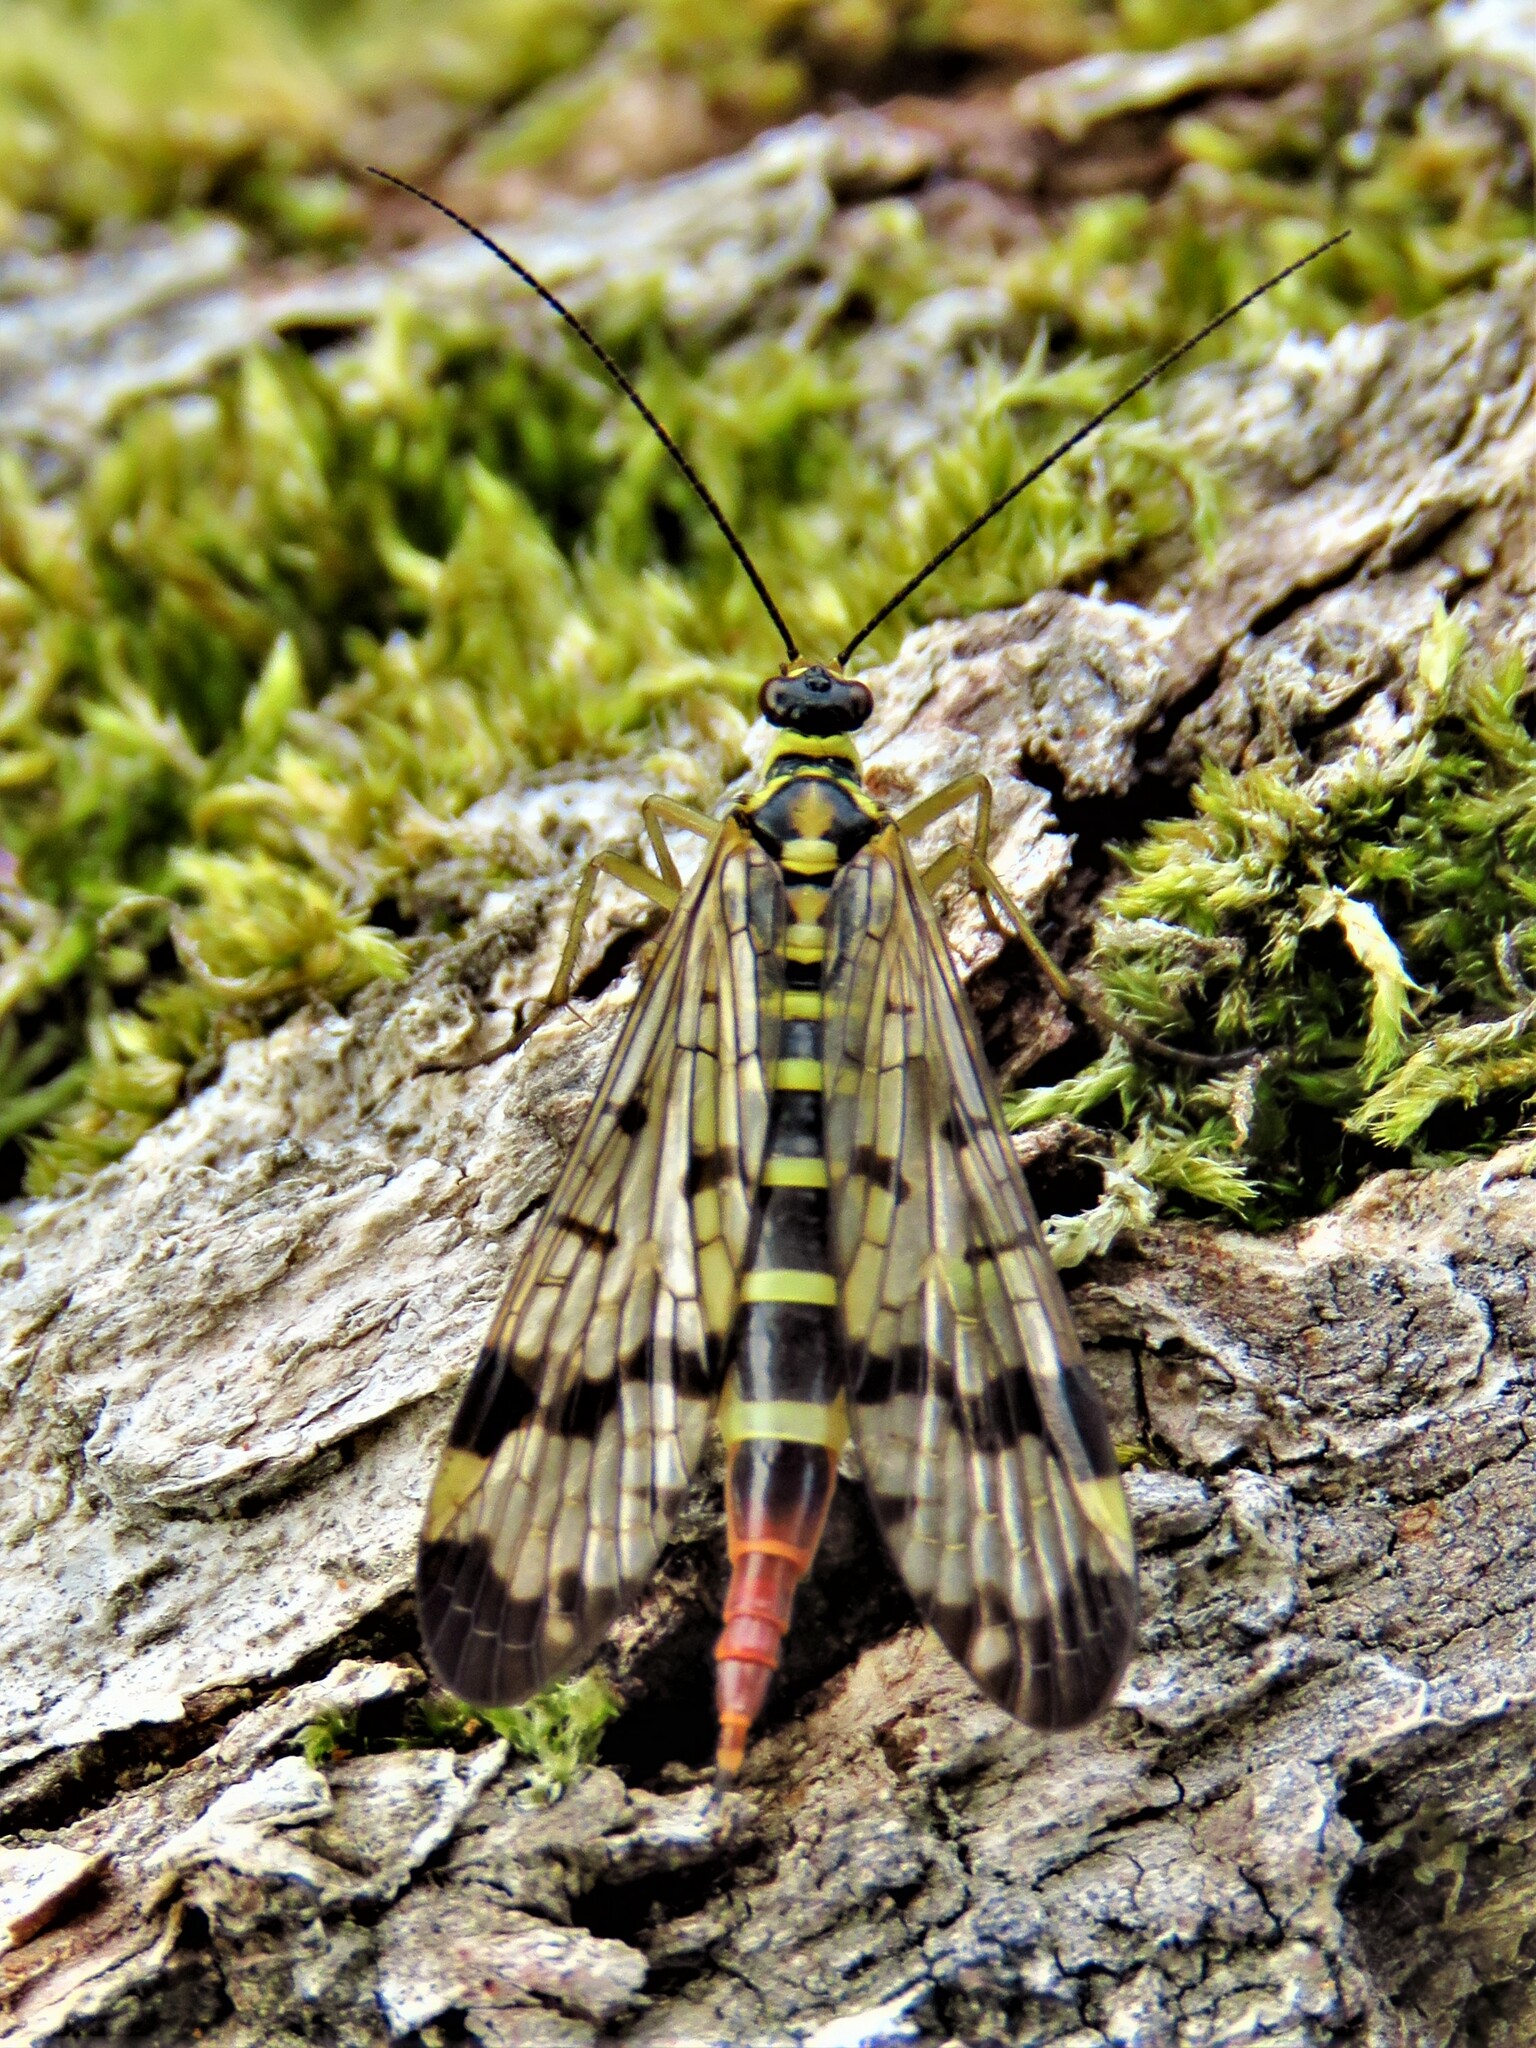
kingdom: Animalia
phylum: Arthropoda
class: Insecta
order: Mecoptera
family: Panorpidae
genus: Panorpa
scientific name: Panorpa communis
